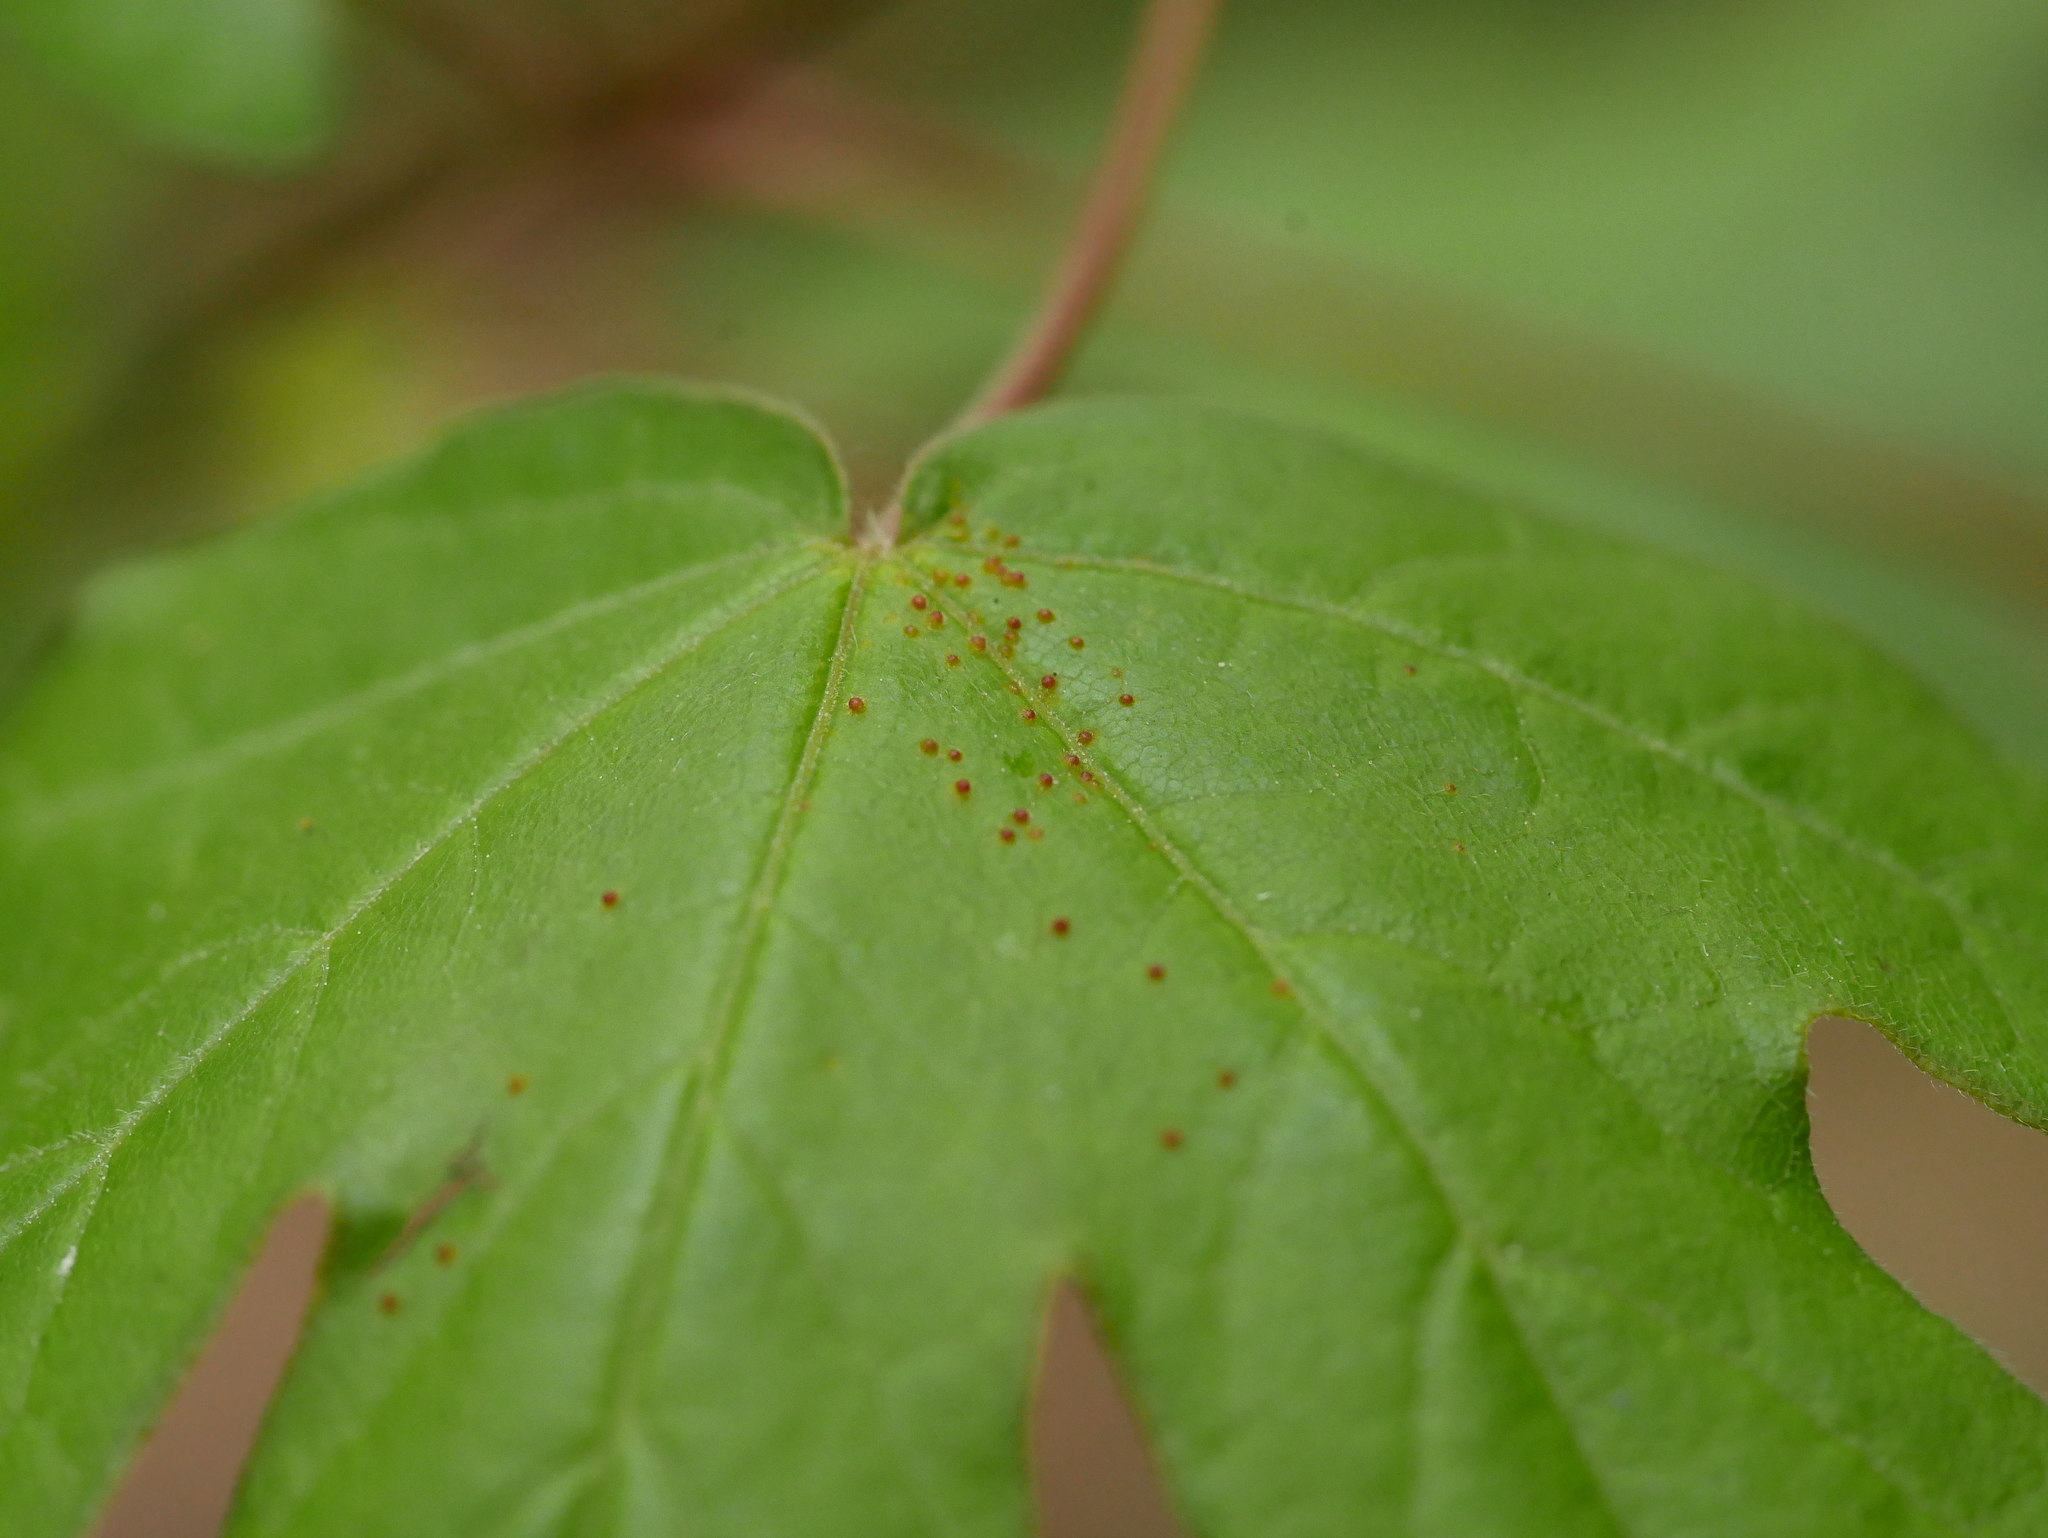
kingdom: Animalia
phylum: Arthropoda
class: Arachnida
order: Trombidiformes
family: Eriophyidae
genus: Aceria
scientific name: Aceria myriadeum
